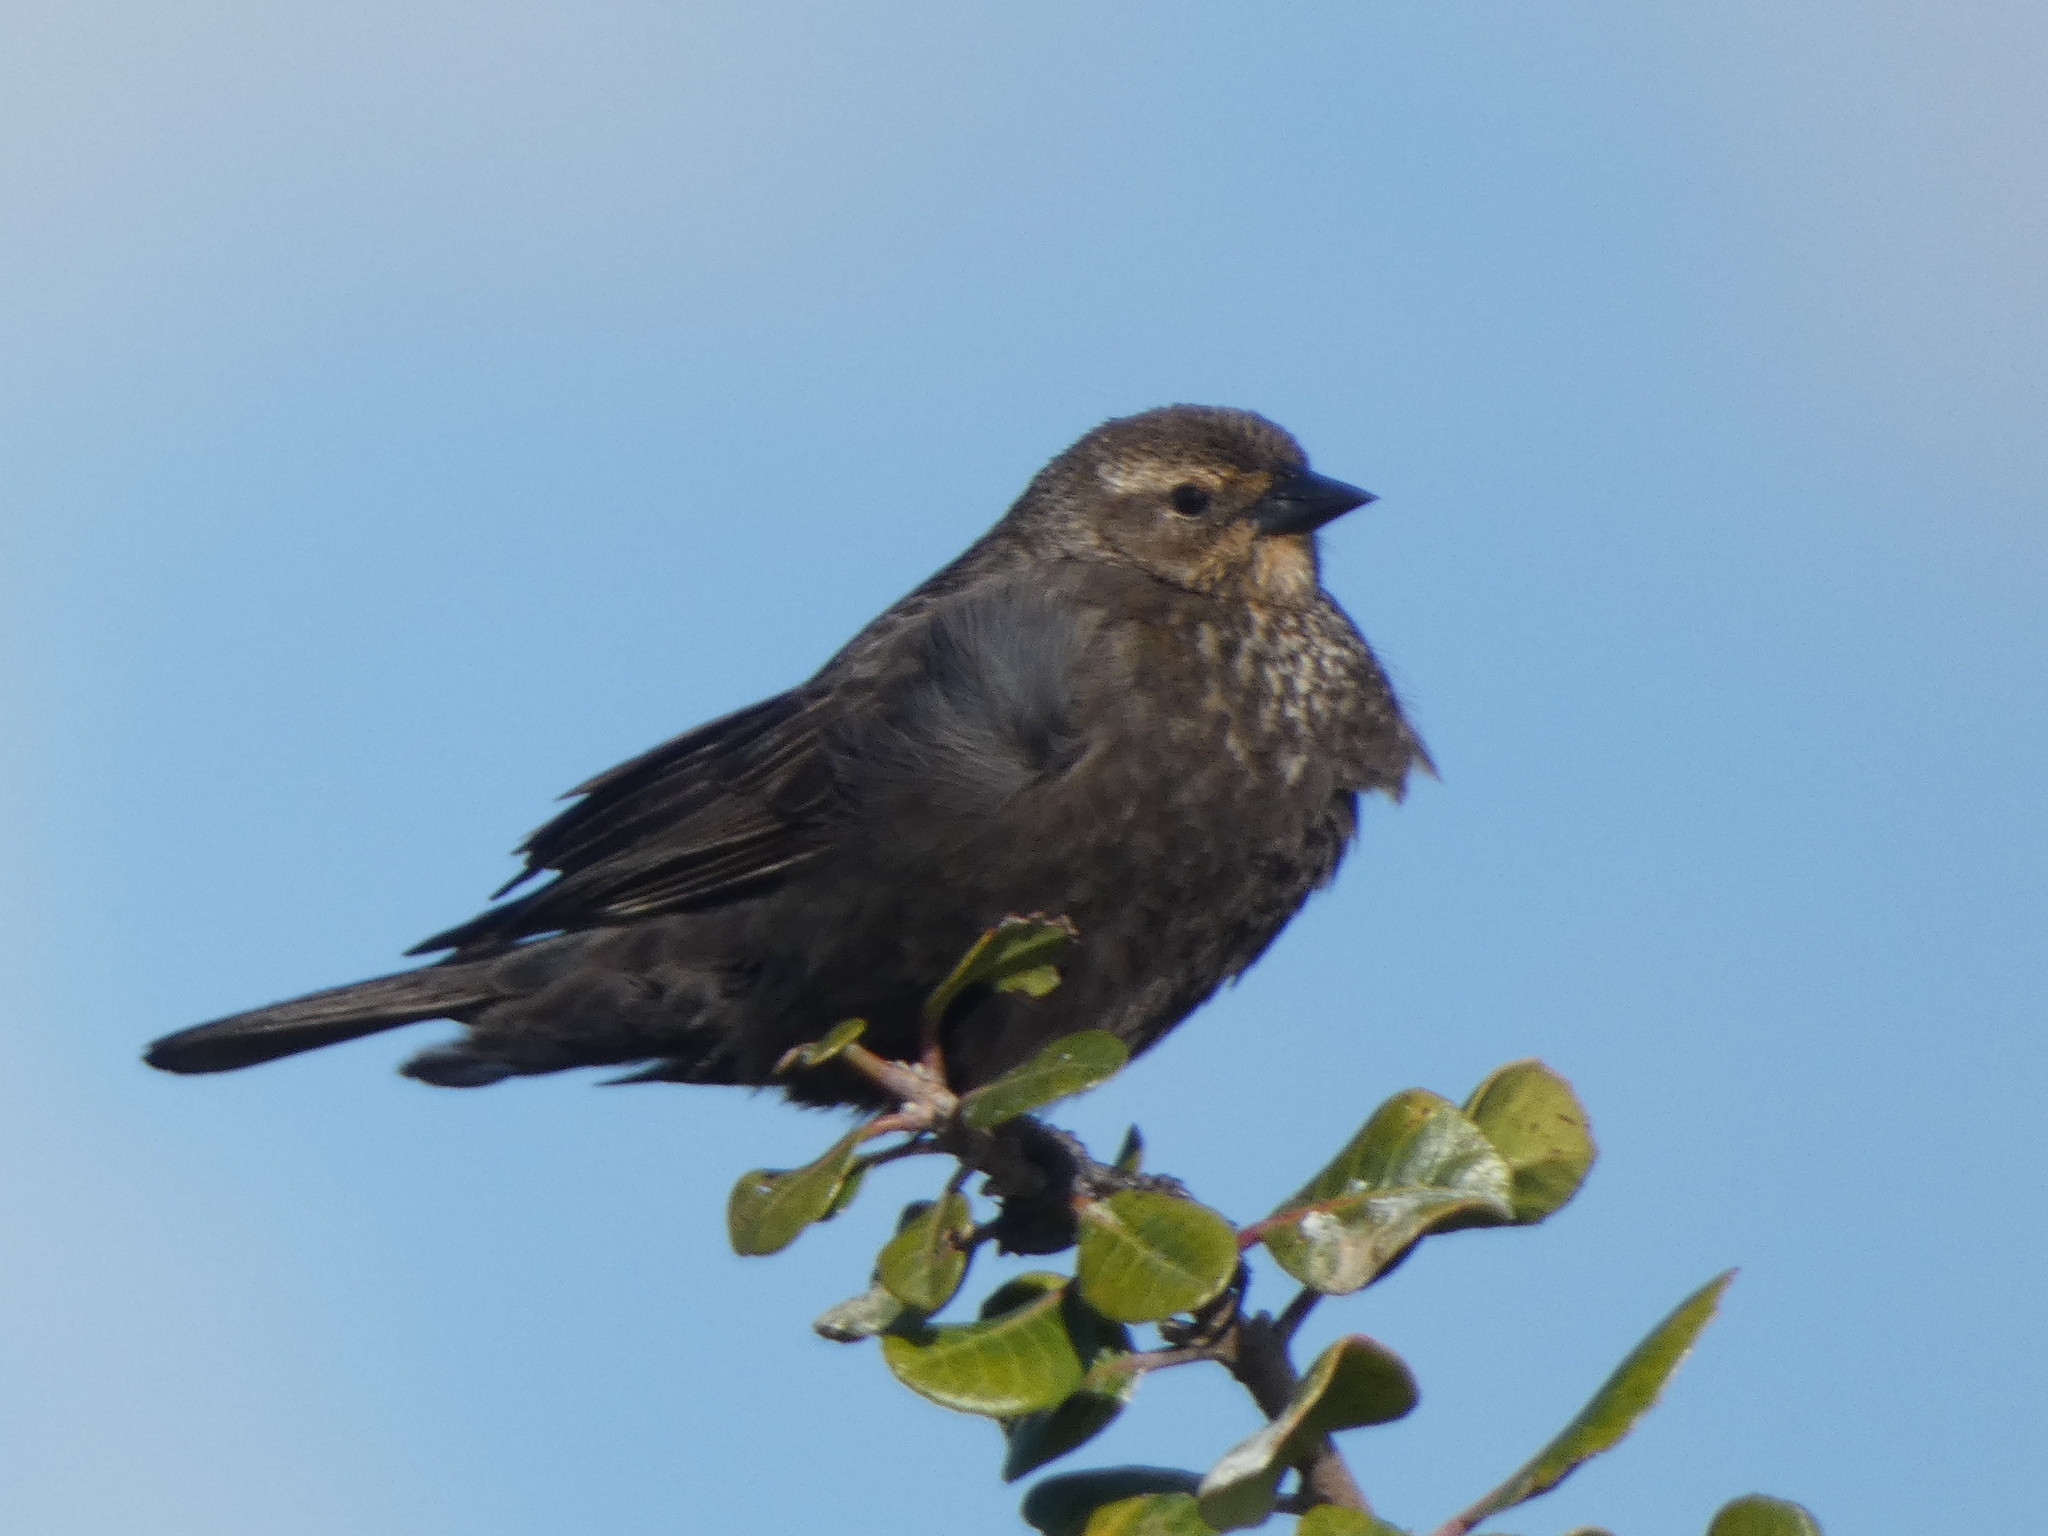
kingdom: Animalia
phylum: Chordata
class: Aves
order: Passeriformes
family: Icteridae
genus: Agelaius
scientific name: Agelaius tricolor
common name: Tricolored blackbird
